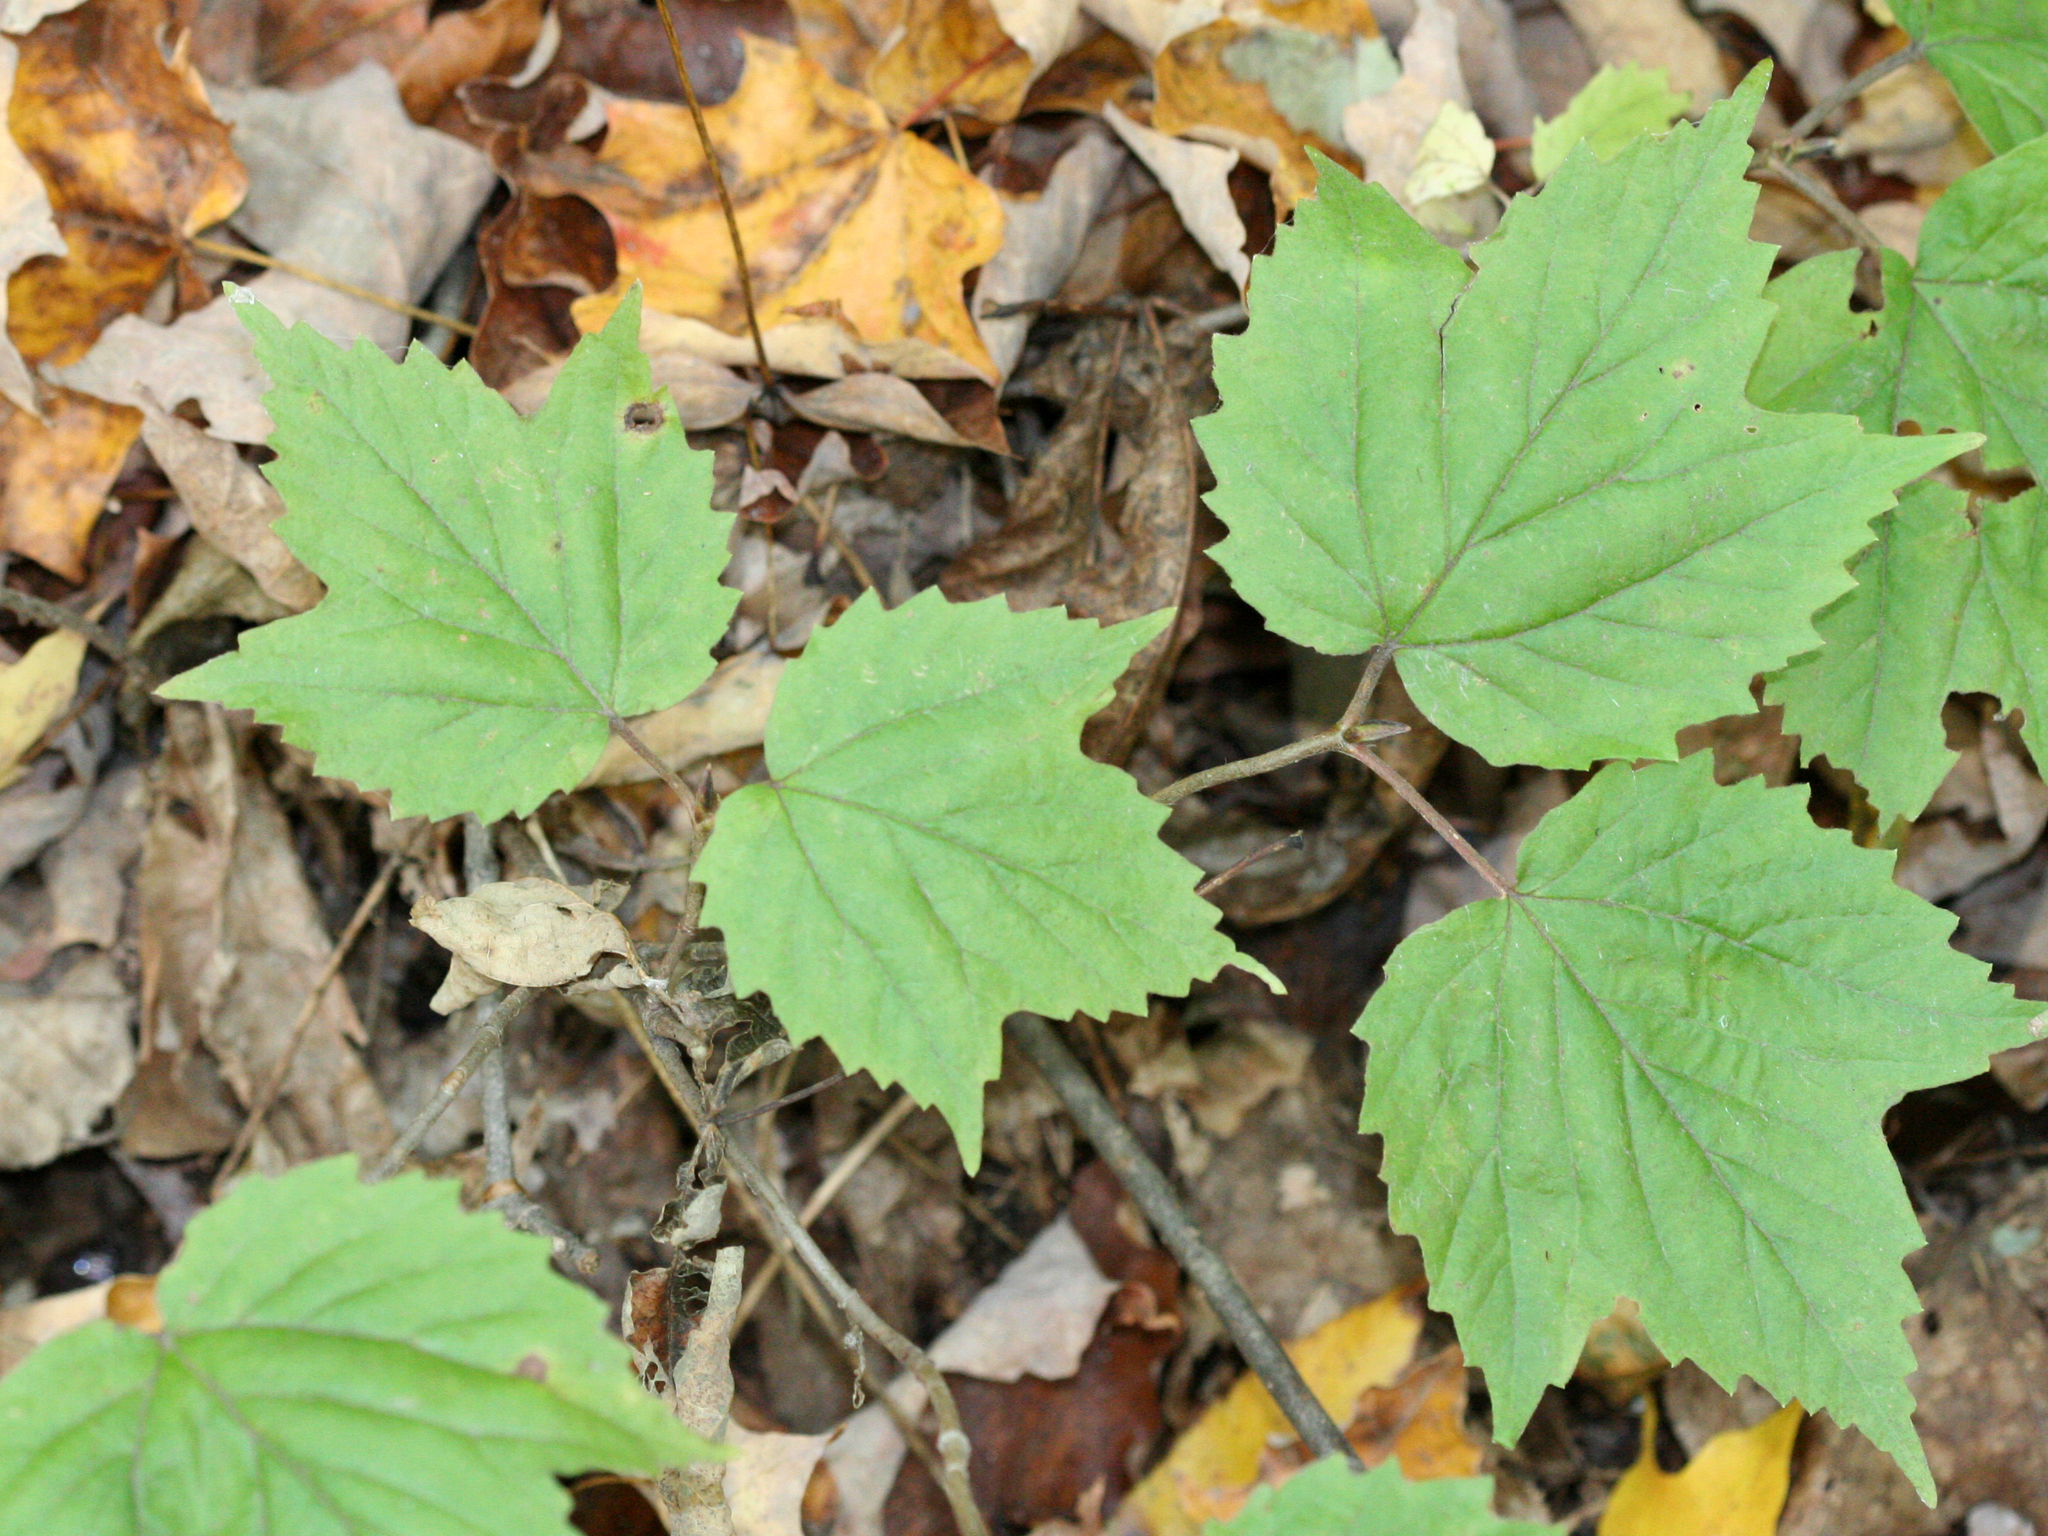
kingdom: Plantae
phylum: Tracheophyta
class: Magnoliopsida
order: Dipsacales
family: Viburnaceae
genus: Viburnum
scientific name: Viburnum acerifolium
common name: Dockmackie
